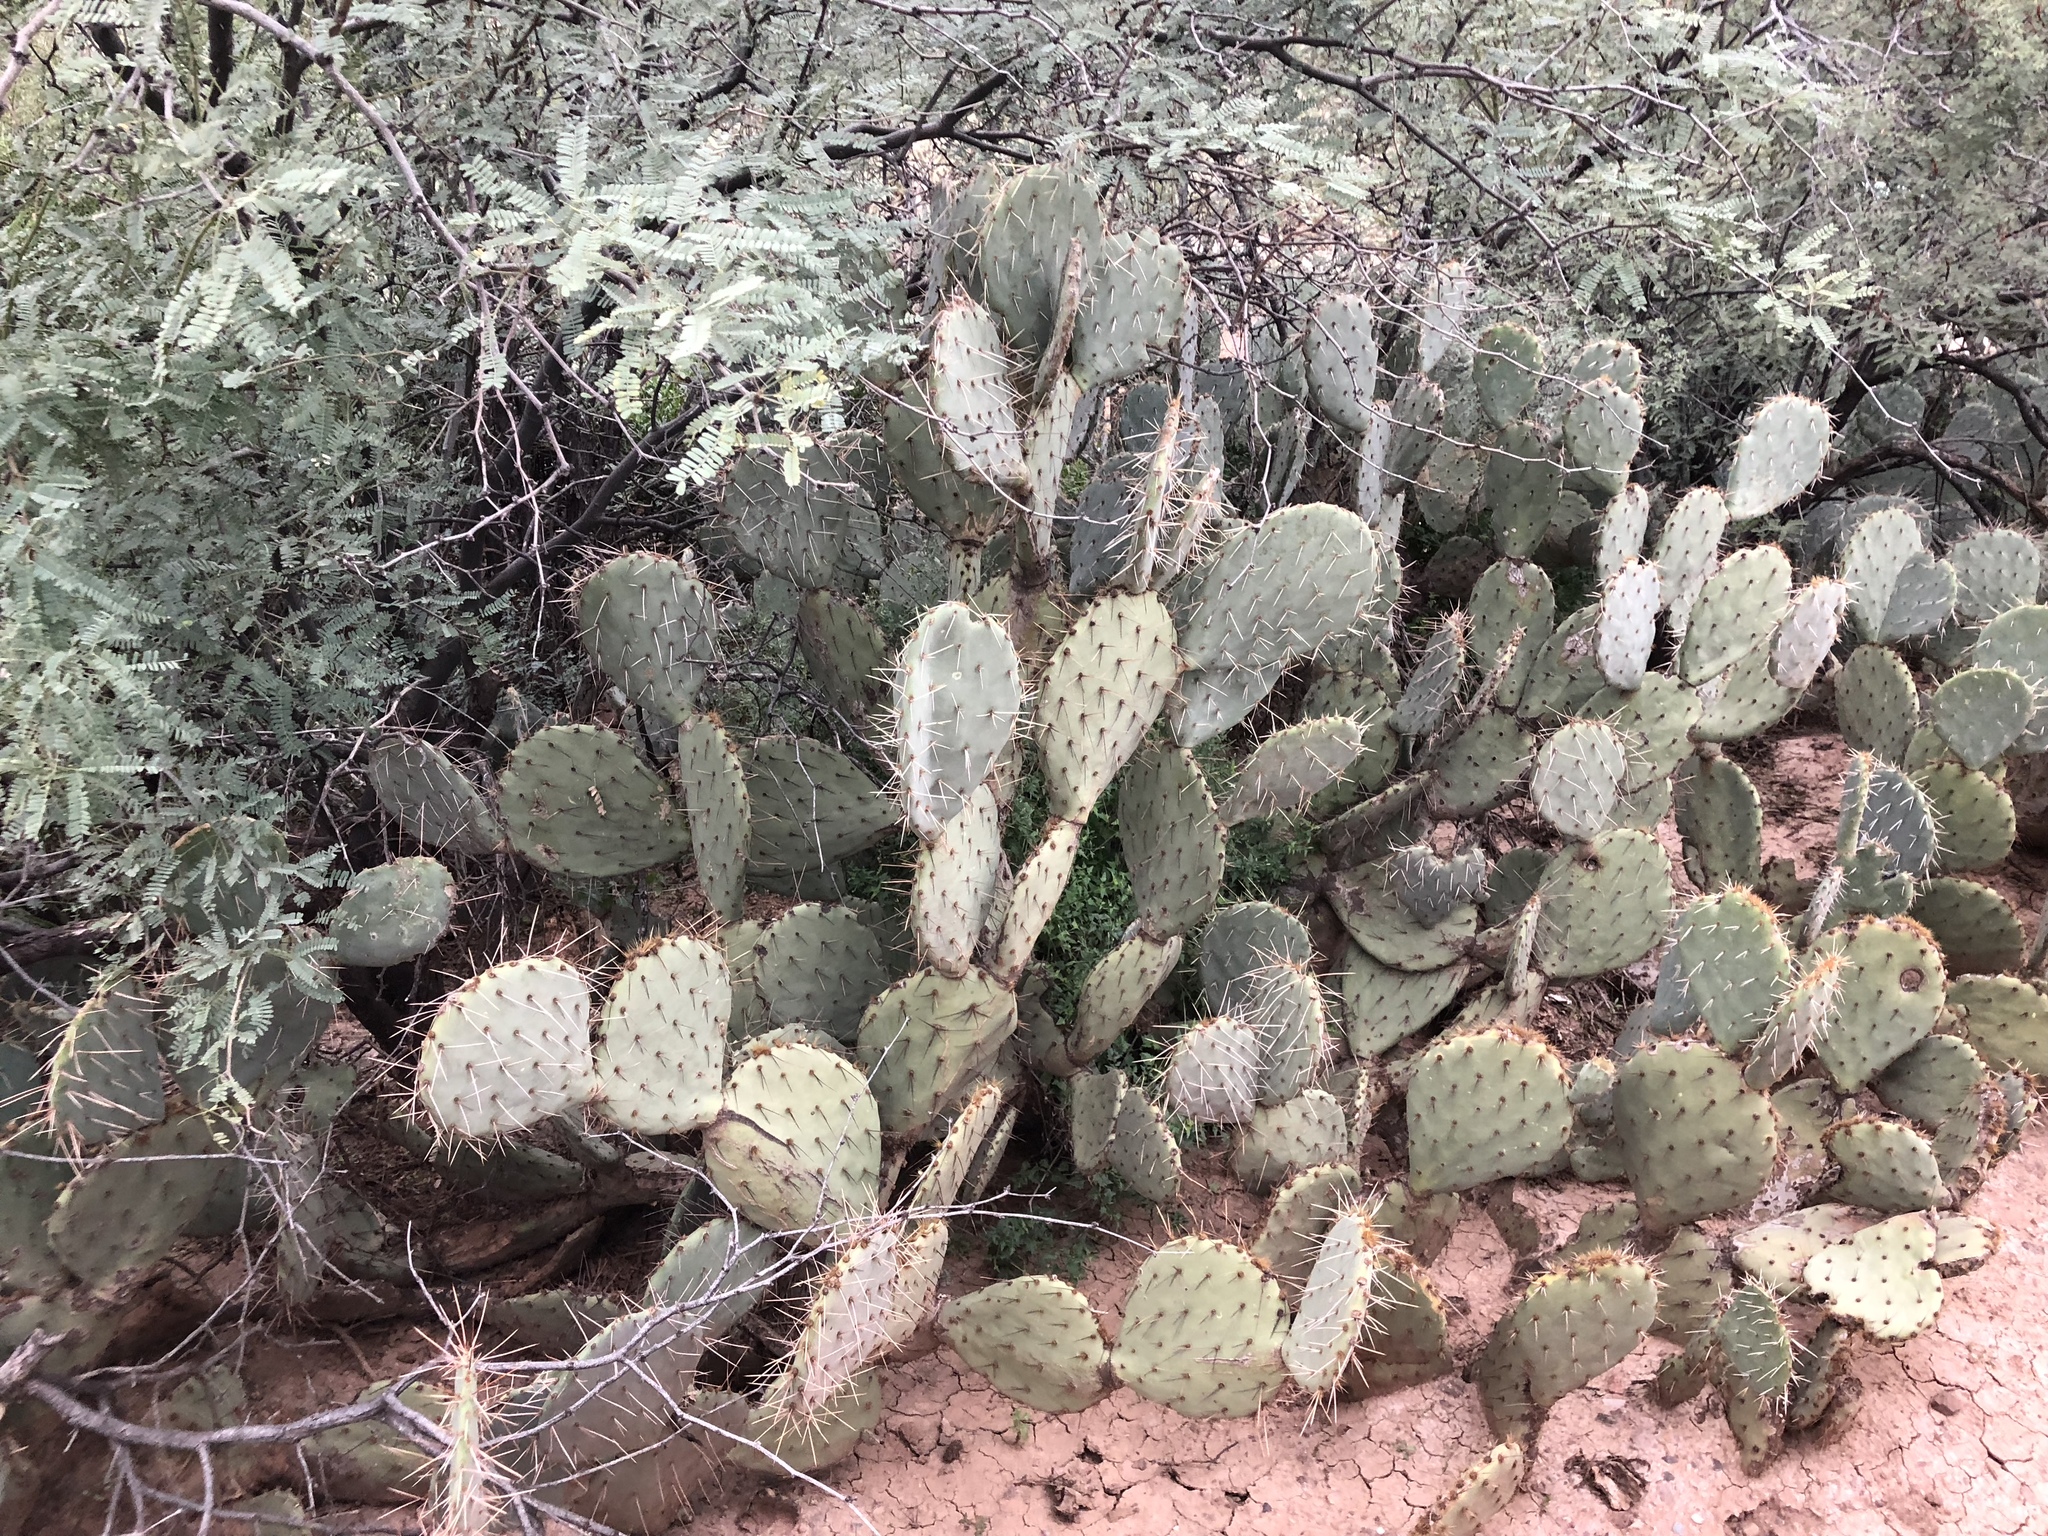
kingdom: Plantae
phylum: Tracheophyta
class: Magnoliopsida
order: Caryophyllales
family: Cactaceae
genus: Opuntia
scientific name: Opuntia engelmannii
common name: Cactus-apple
